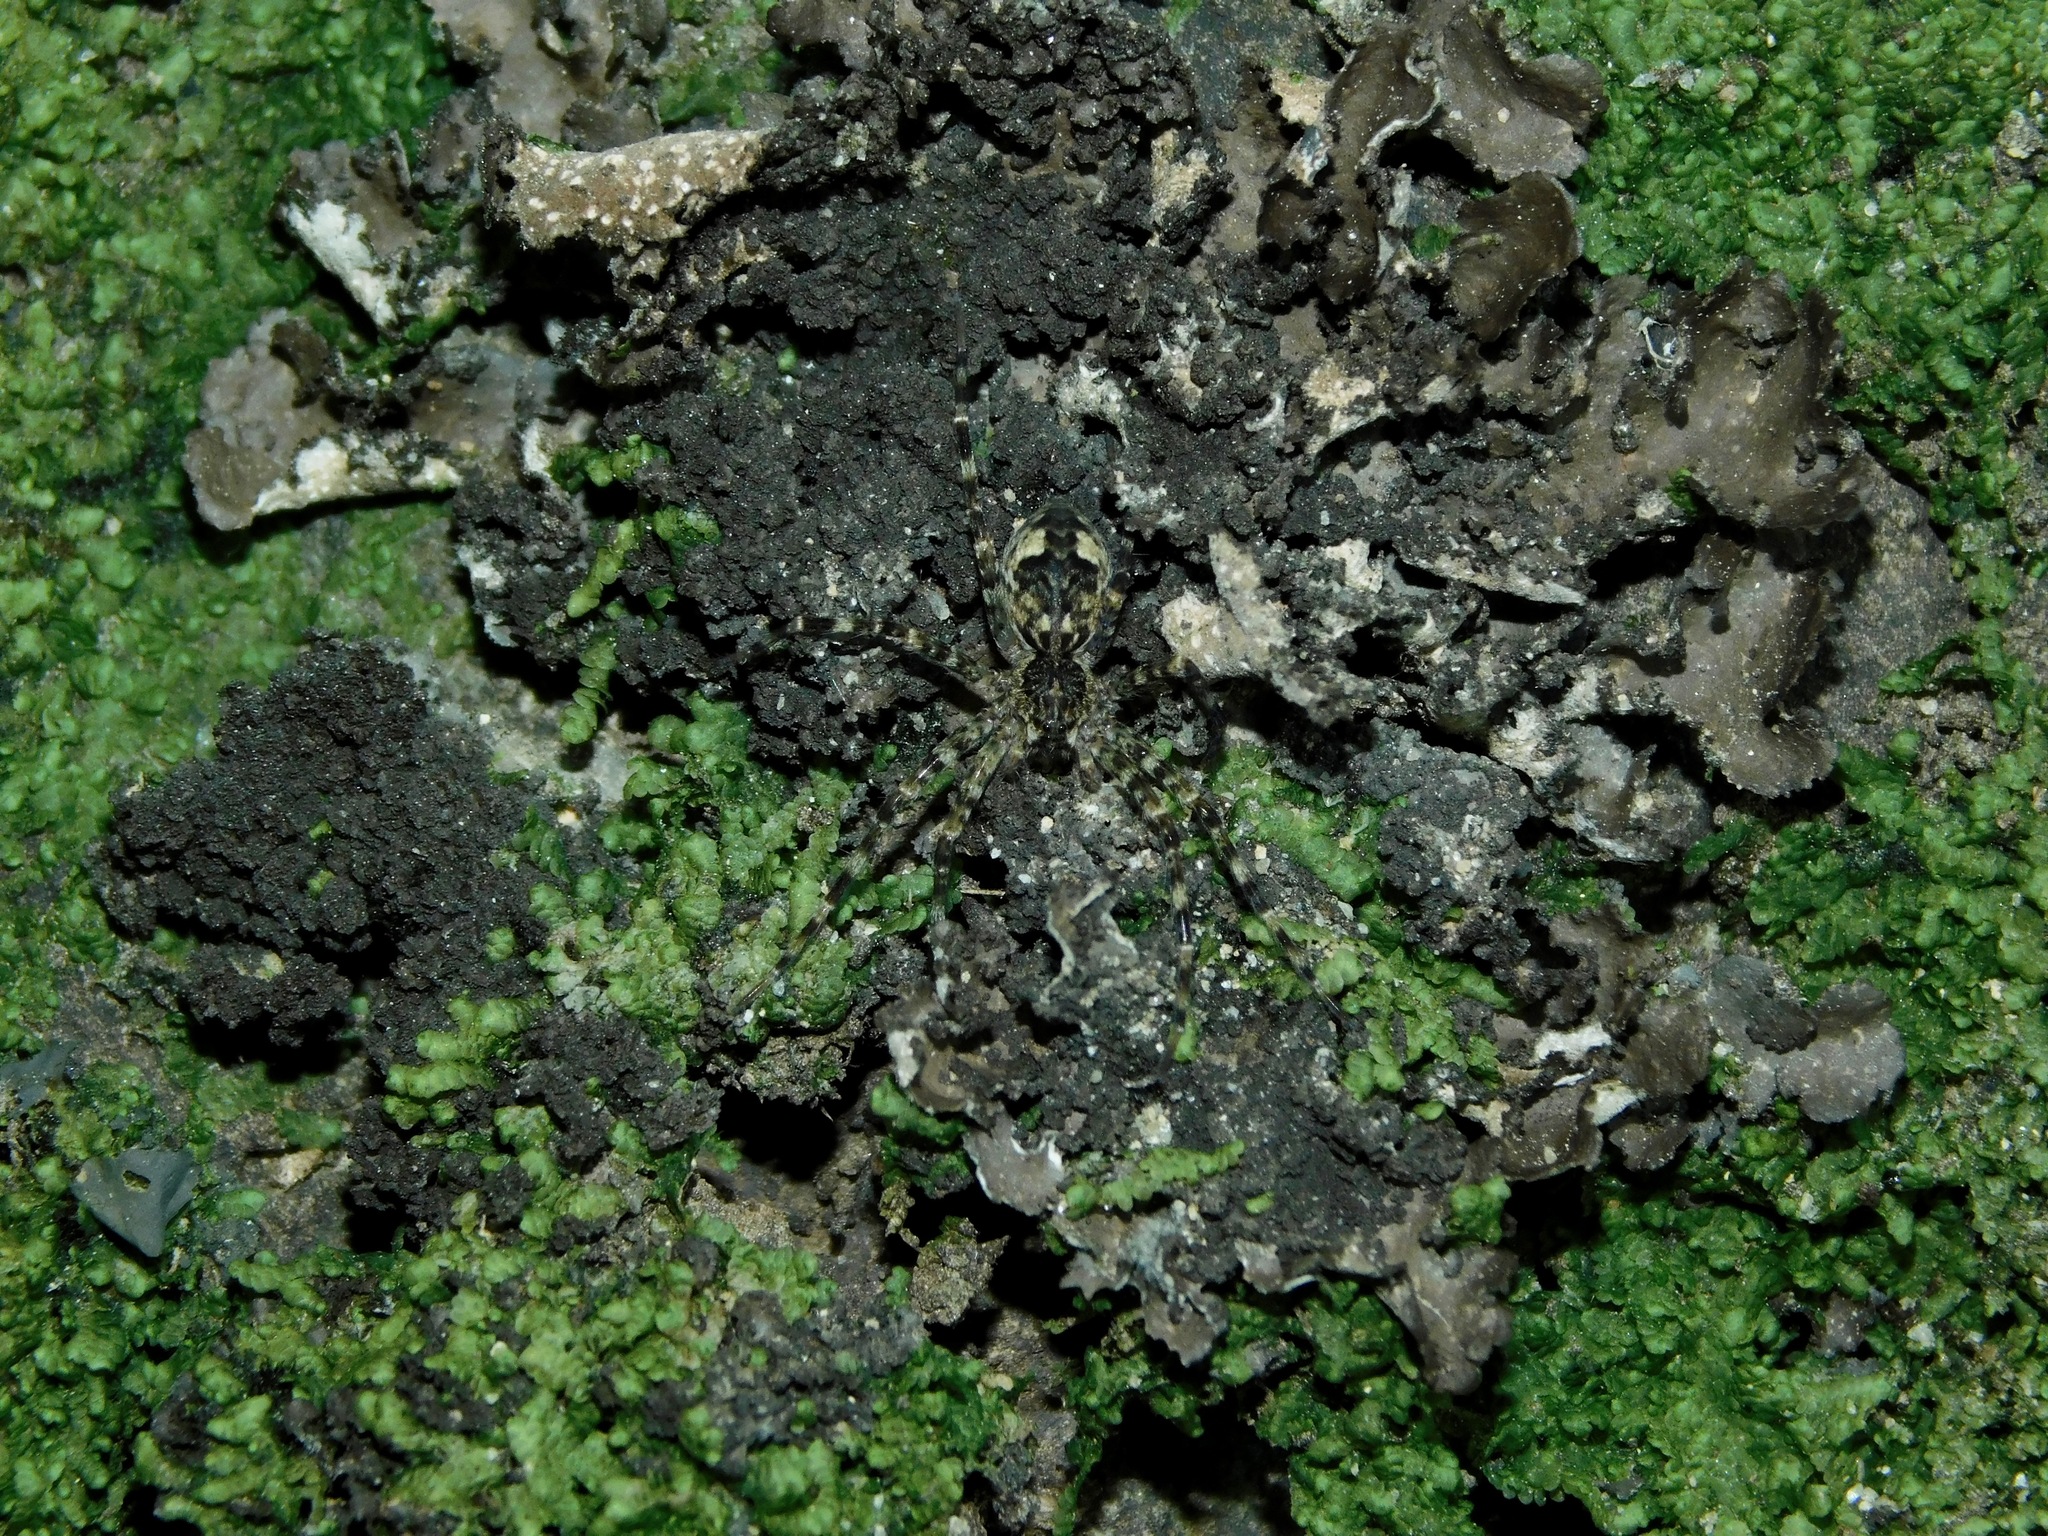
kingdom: Fungi
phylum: Ascomycota
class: Lecanoromycetes
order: Peltigerales
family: Lobariaceae
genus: Sticta
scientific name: Sticta beauvoisii
